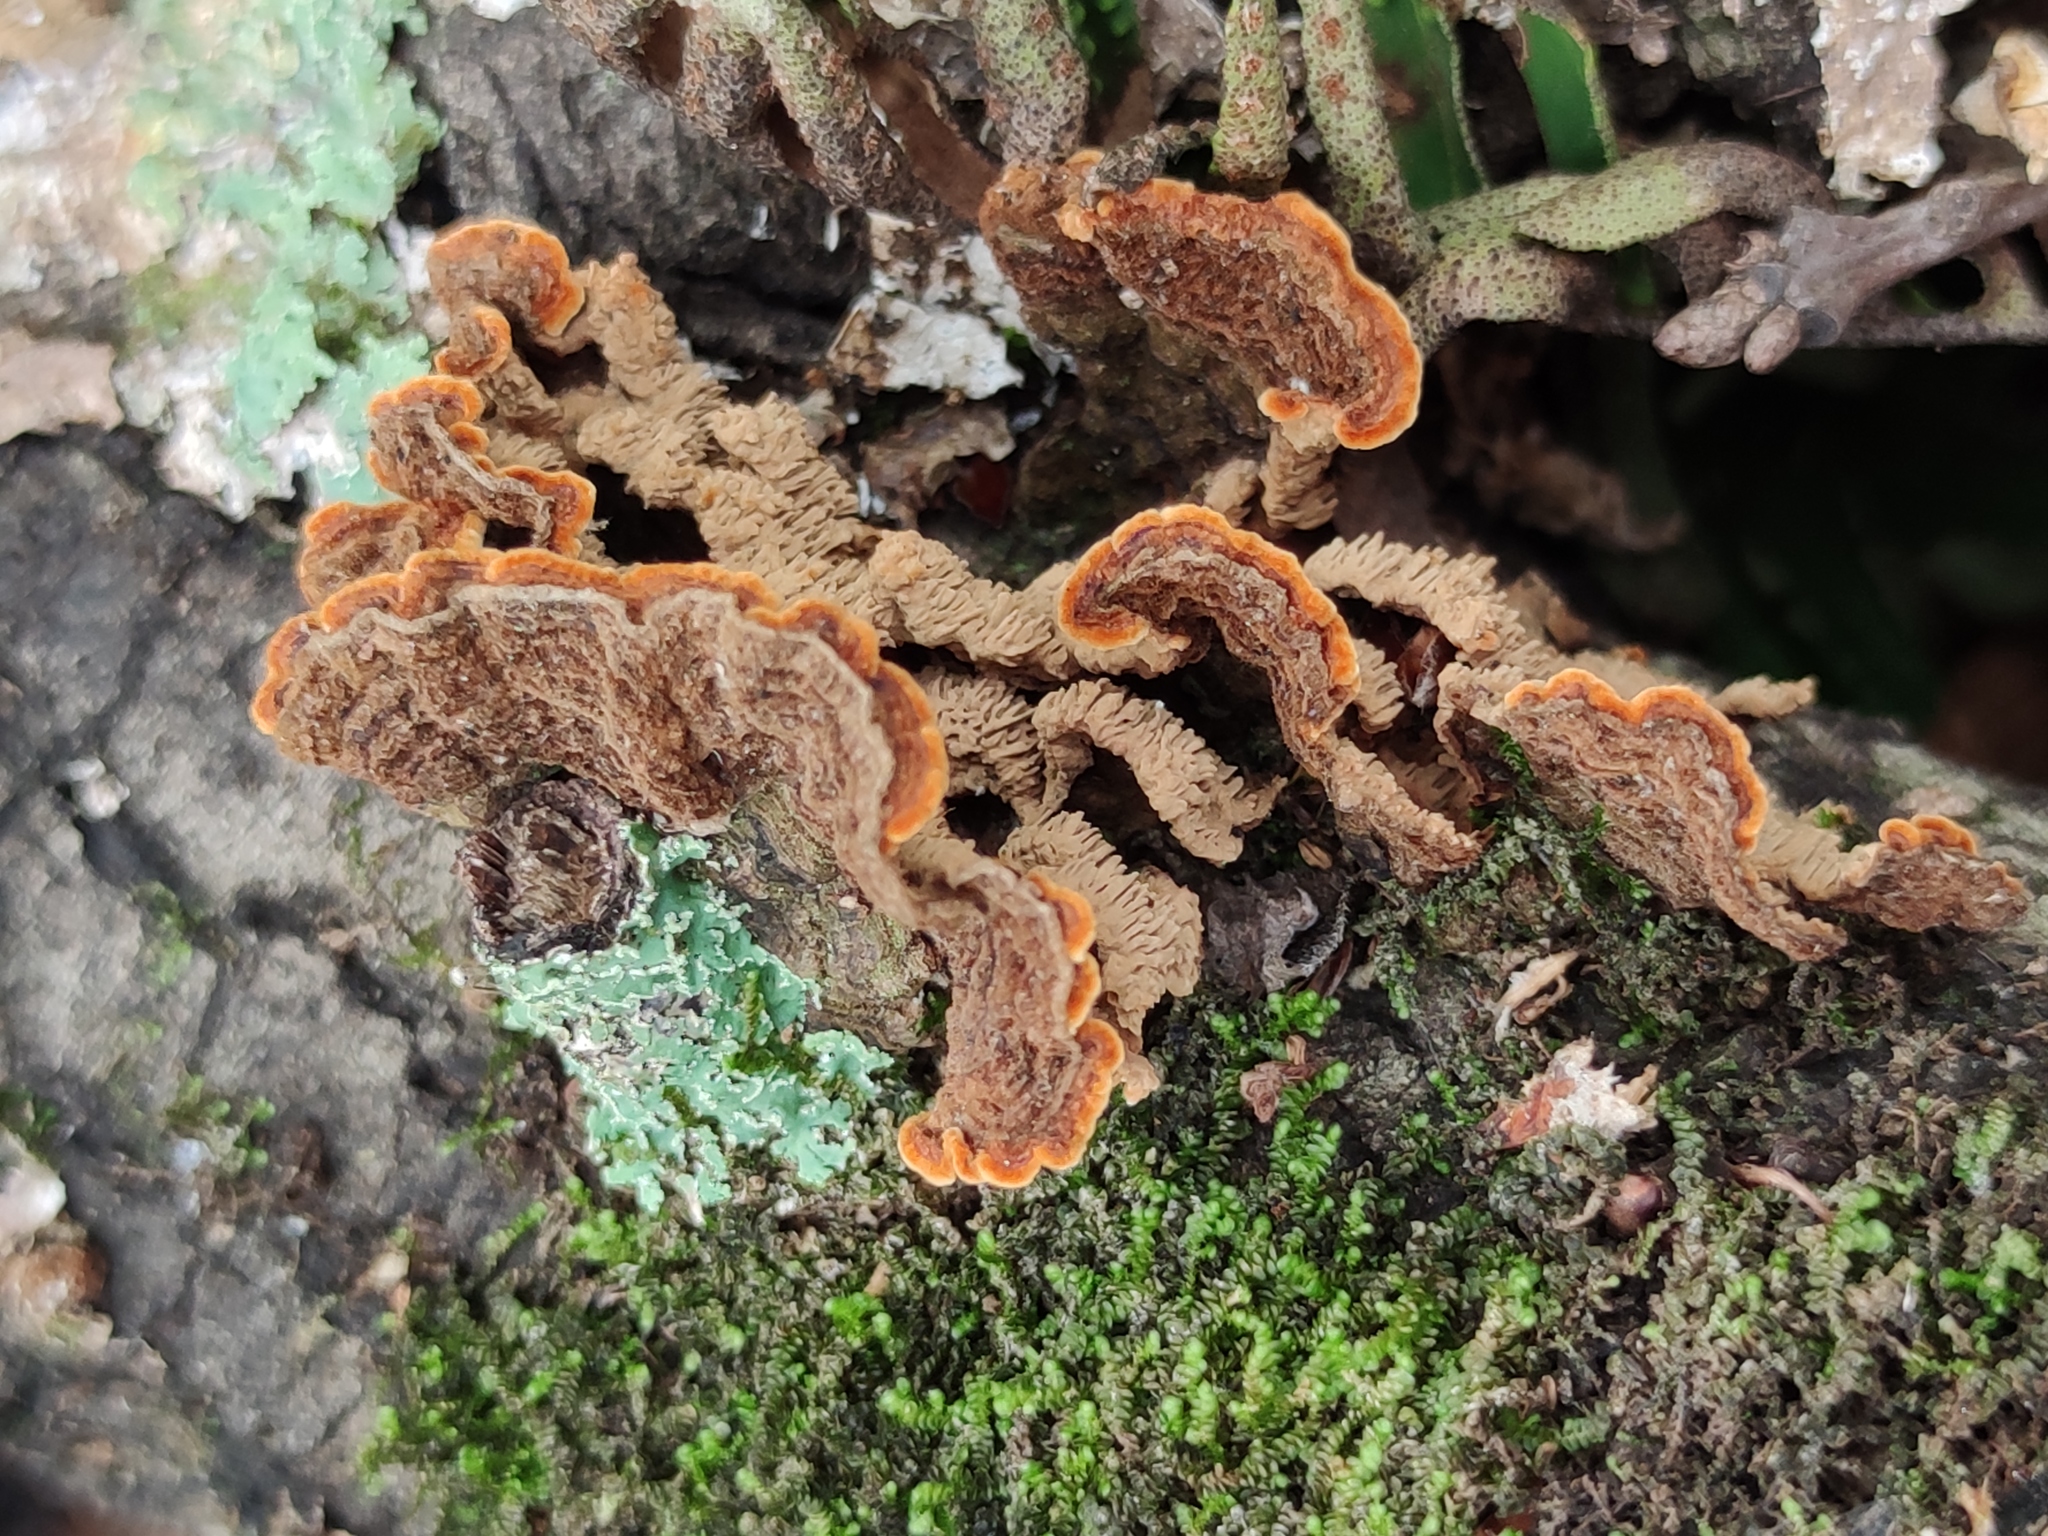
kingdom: Fungi
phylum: Basidiomycota
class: Agaricomycetes
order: Polyporales
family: Meruliaceae
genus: Phlebia
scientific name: Phlebia tremellosa
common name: Jelly rot
